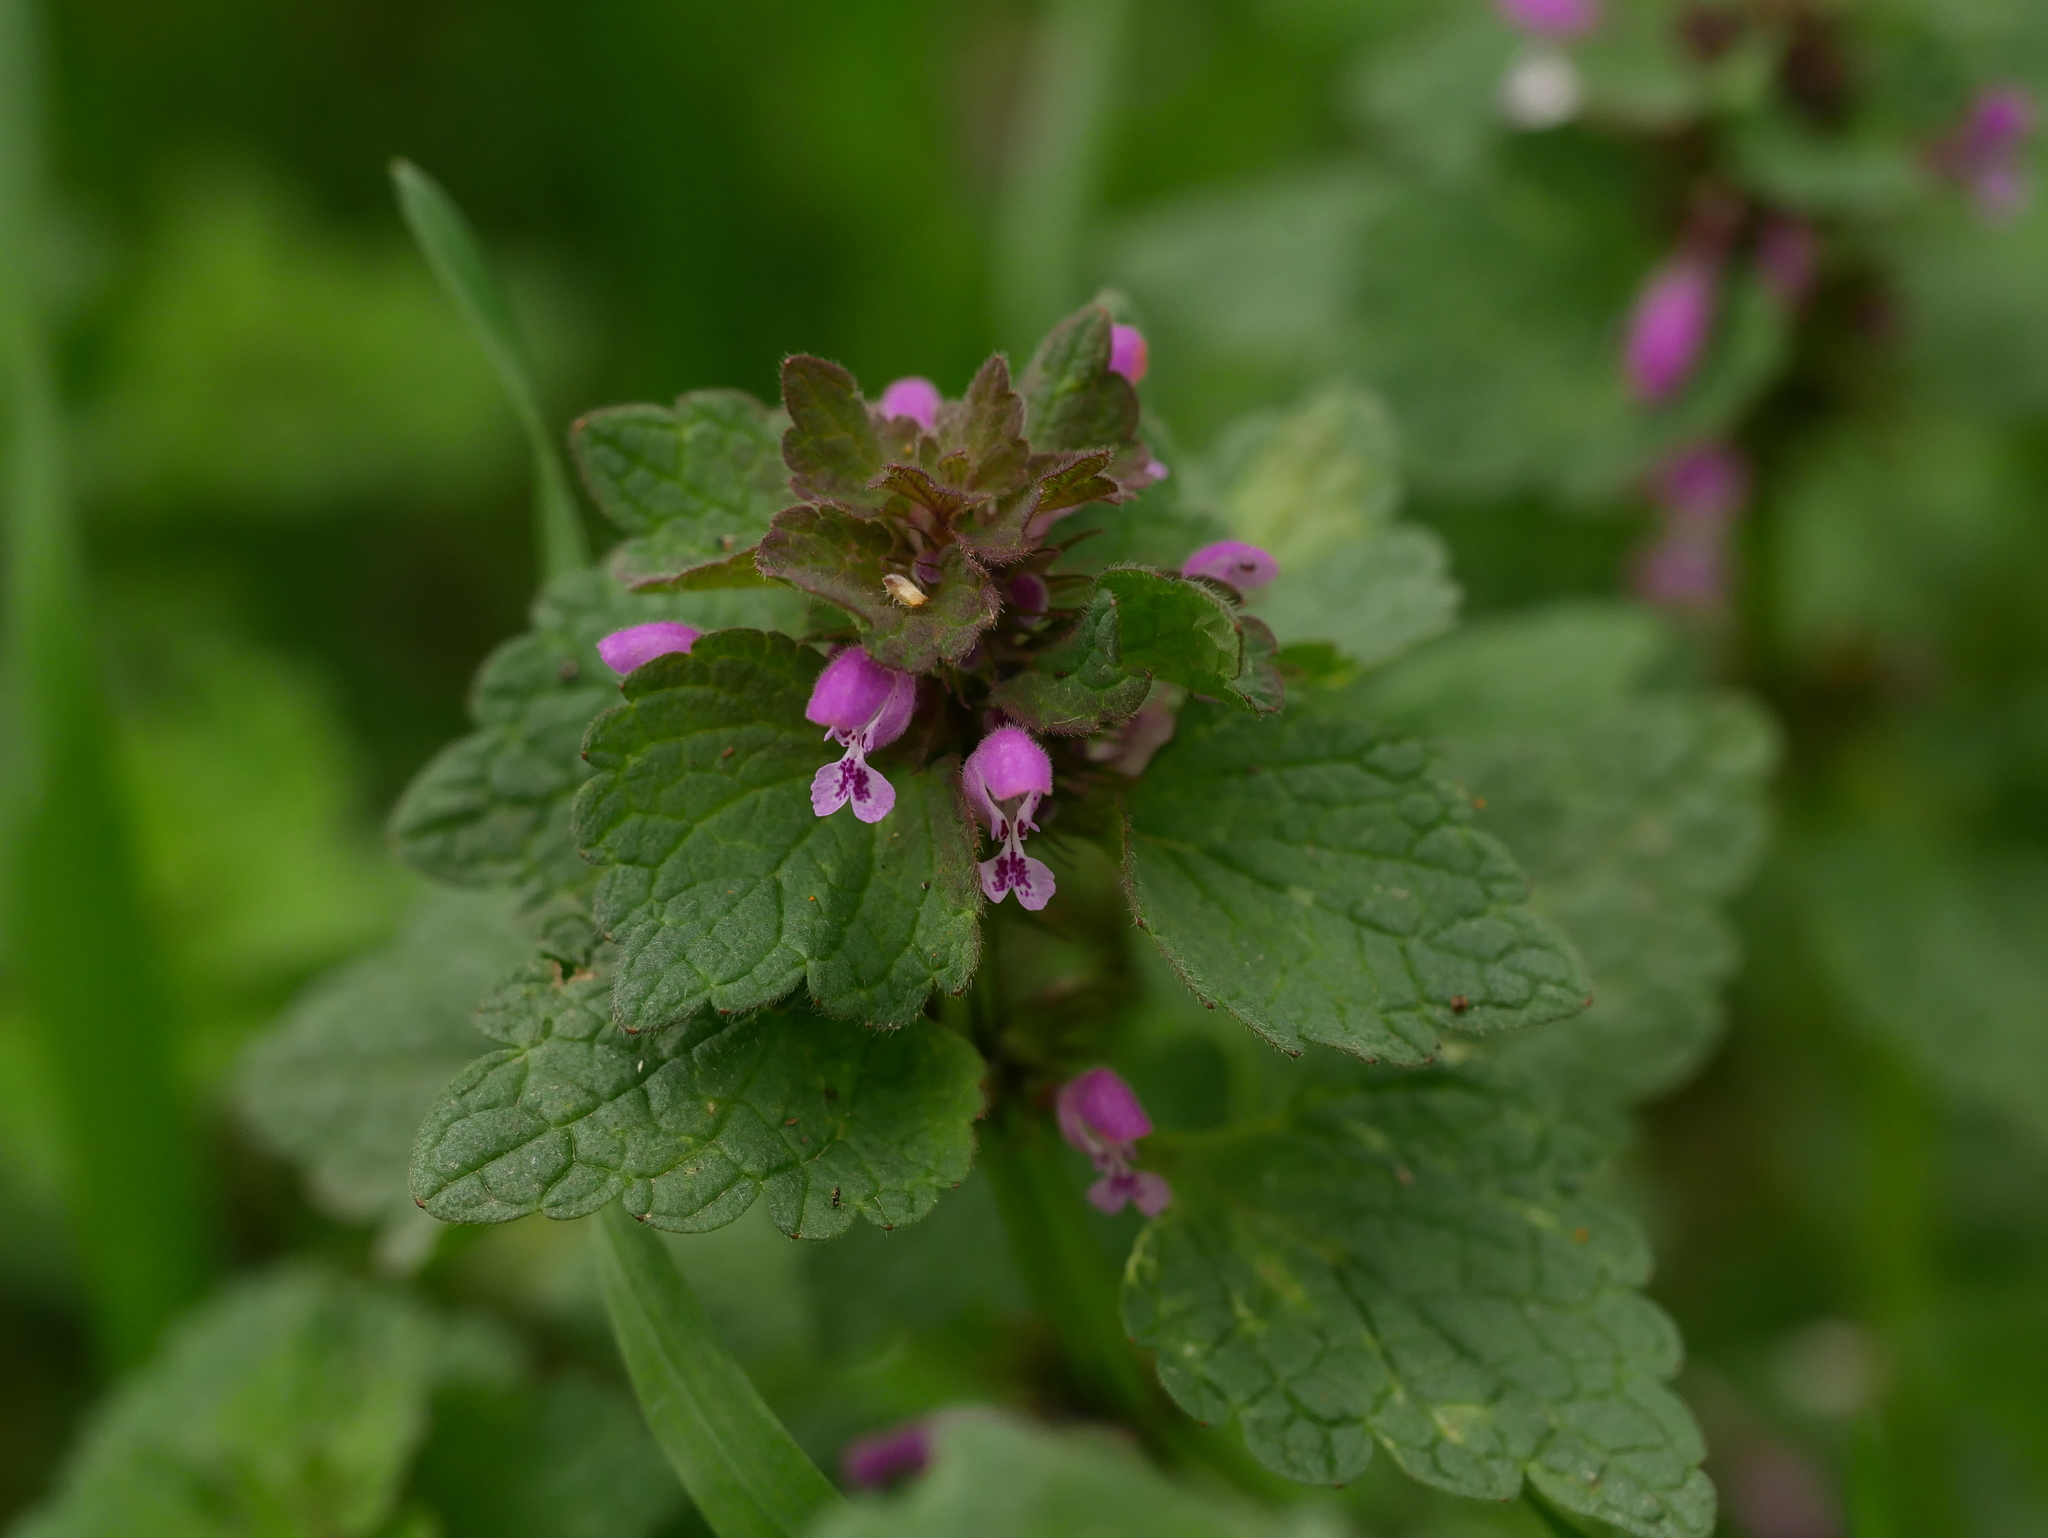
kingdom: Plantae
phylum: Tracheophyta
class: Magnoliopsida
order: Lamiales
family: Lamiaceae
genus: Lamium
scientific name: Lamium purpureum
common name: Red dead-nettle
